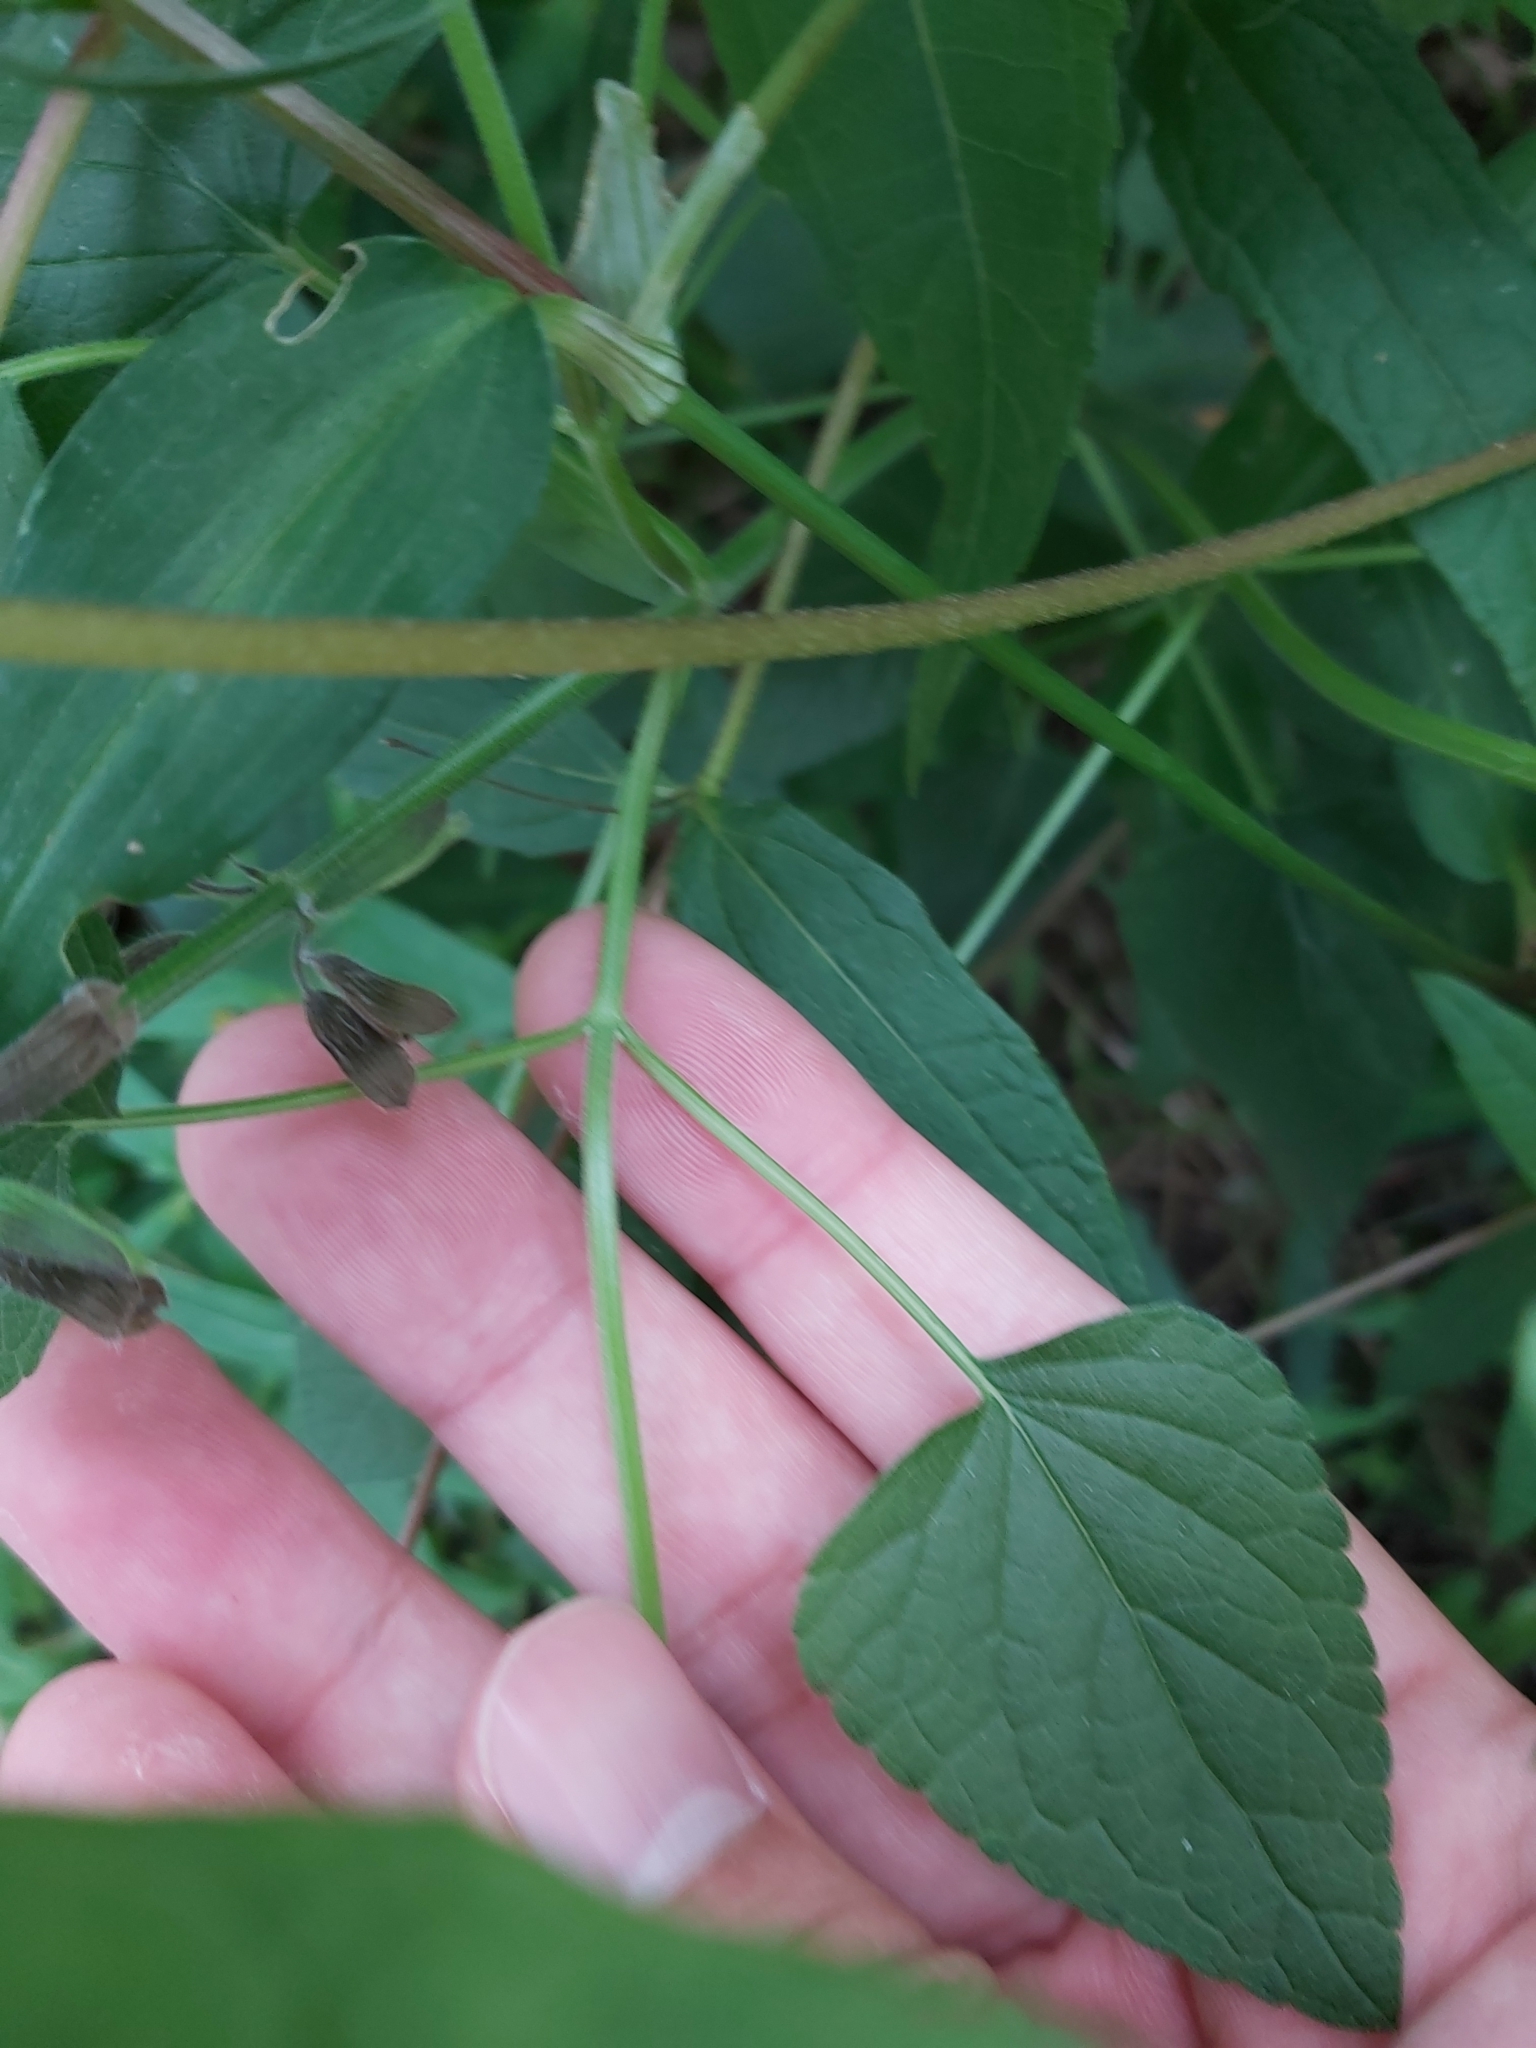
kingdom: Plantae
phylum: Tracheophyta
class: Magnoliopsida
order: Lamiales
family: Lamiaceae
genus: Salvia
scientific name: Salvia coccinea
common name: Blood sage
